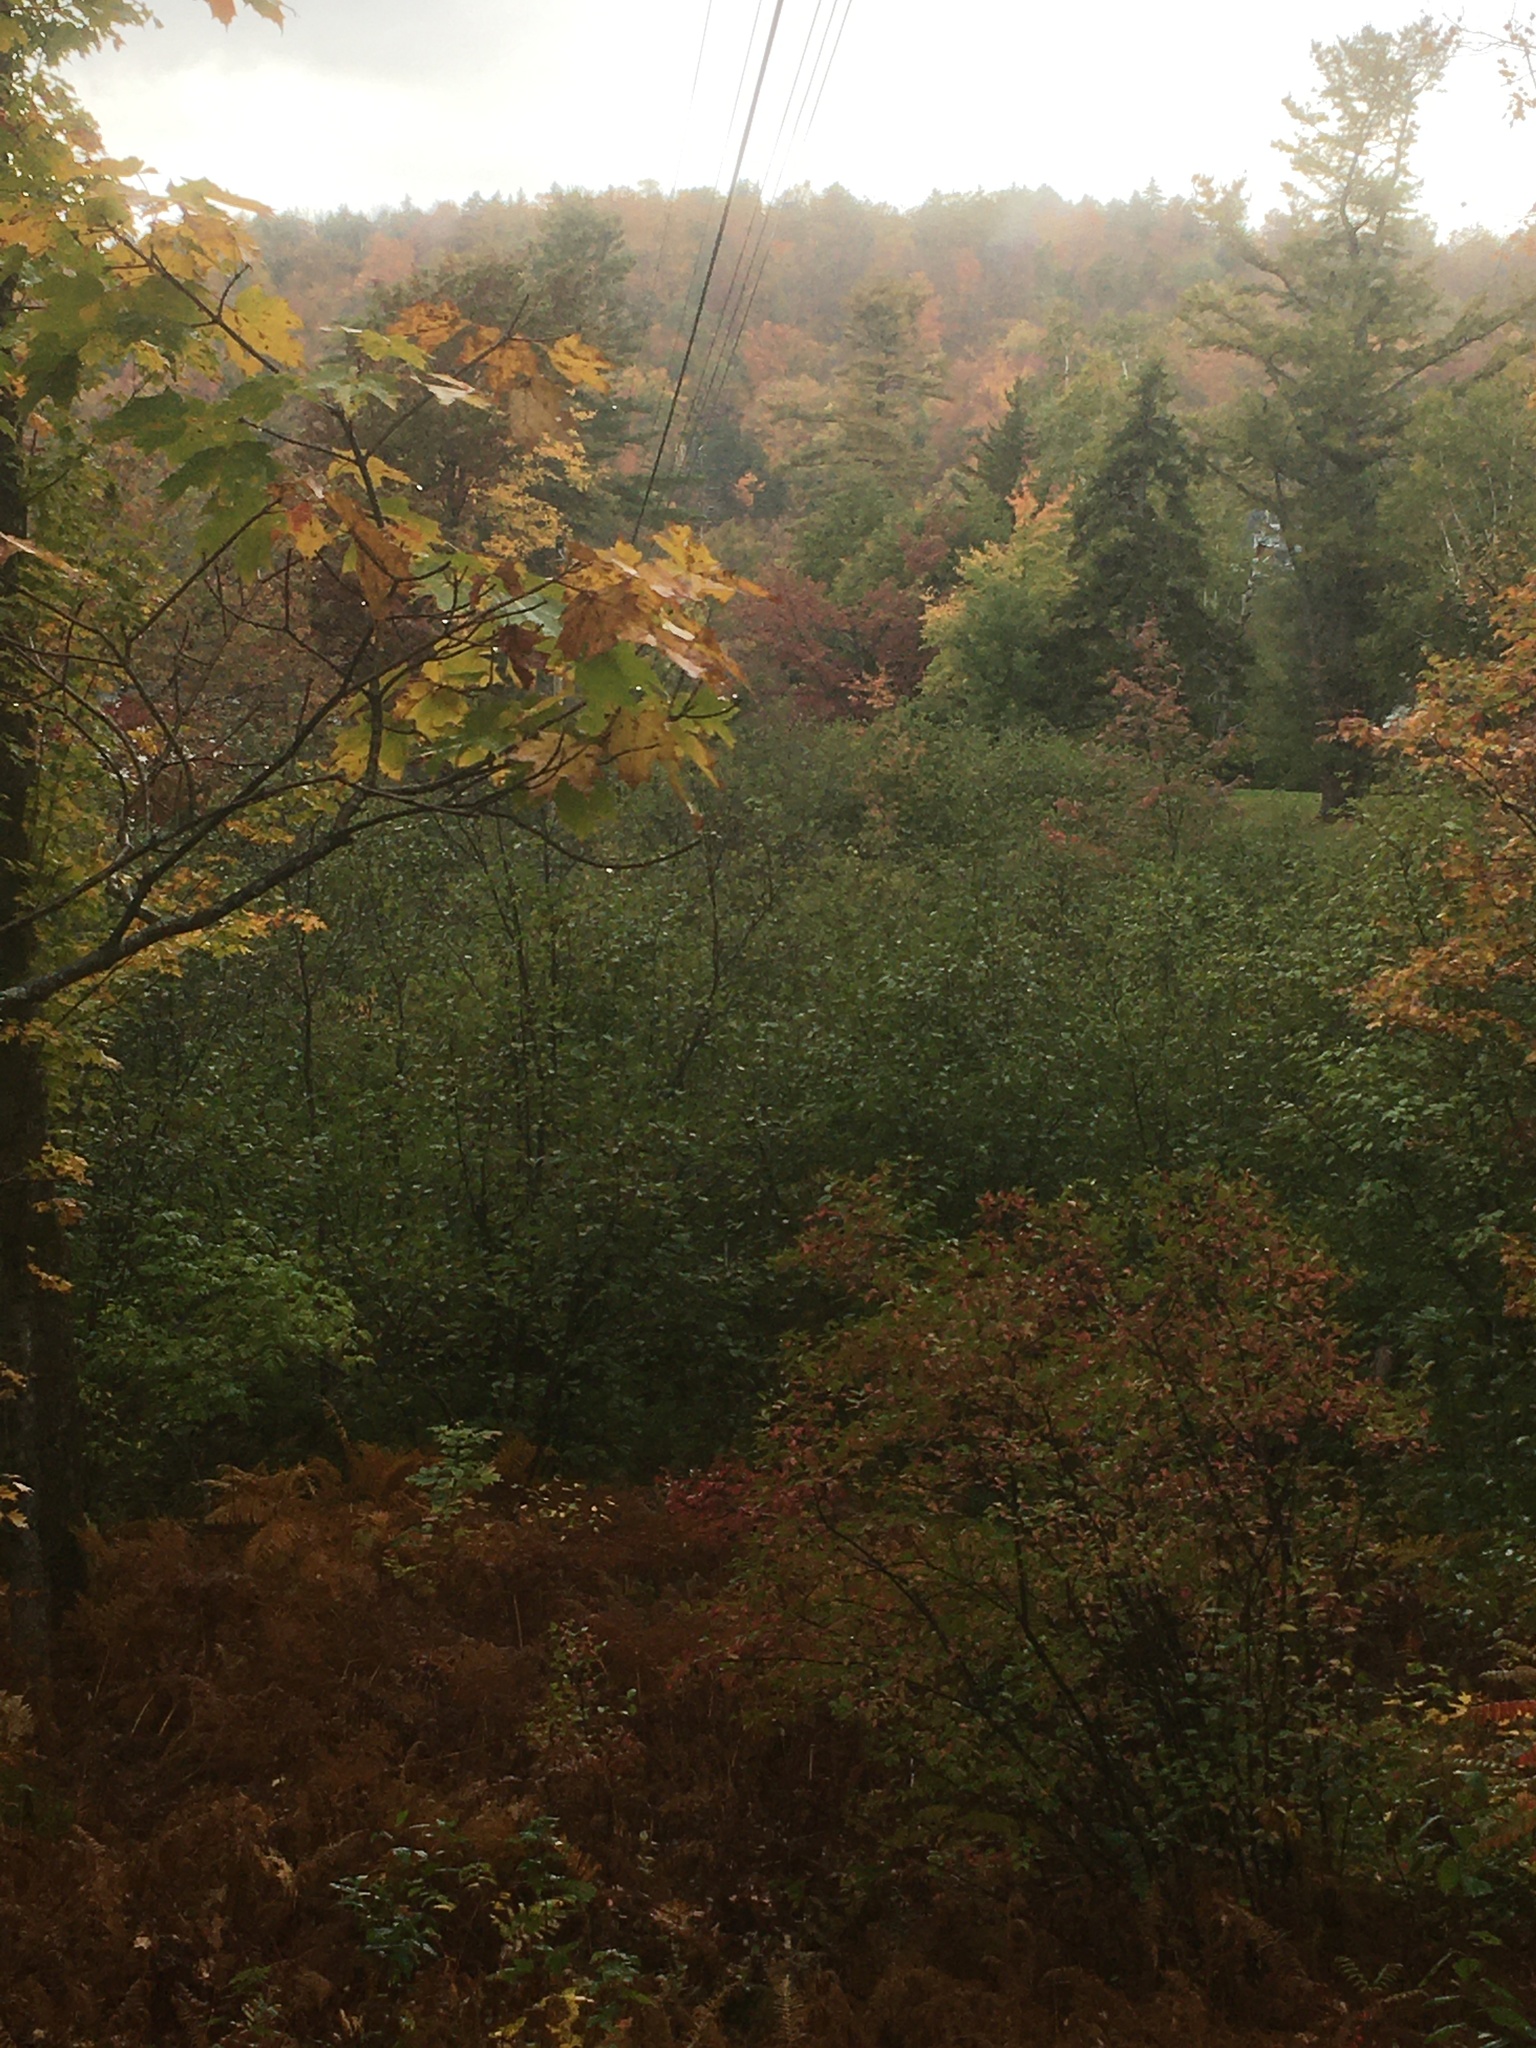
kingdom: Plantae
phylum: Tracheophyta
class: Magnoliopsida
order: Fagales
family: Betulaceae
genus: Alnus
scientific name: Alnus incana
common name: Grey alder
